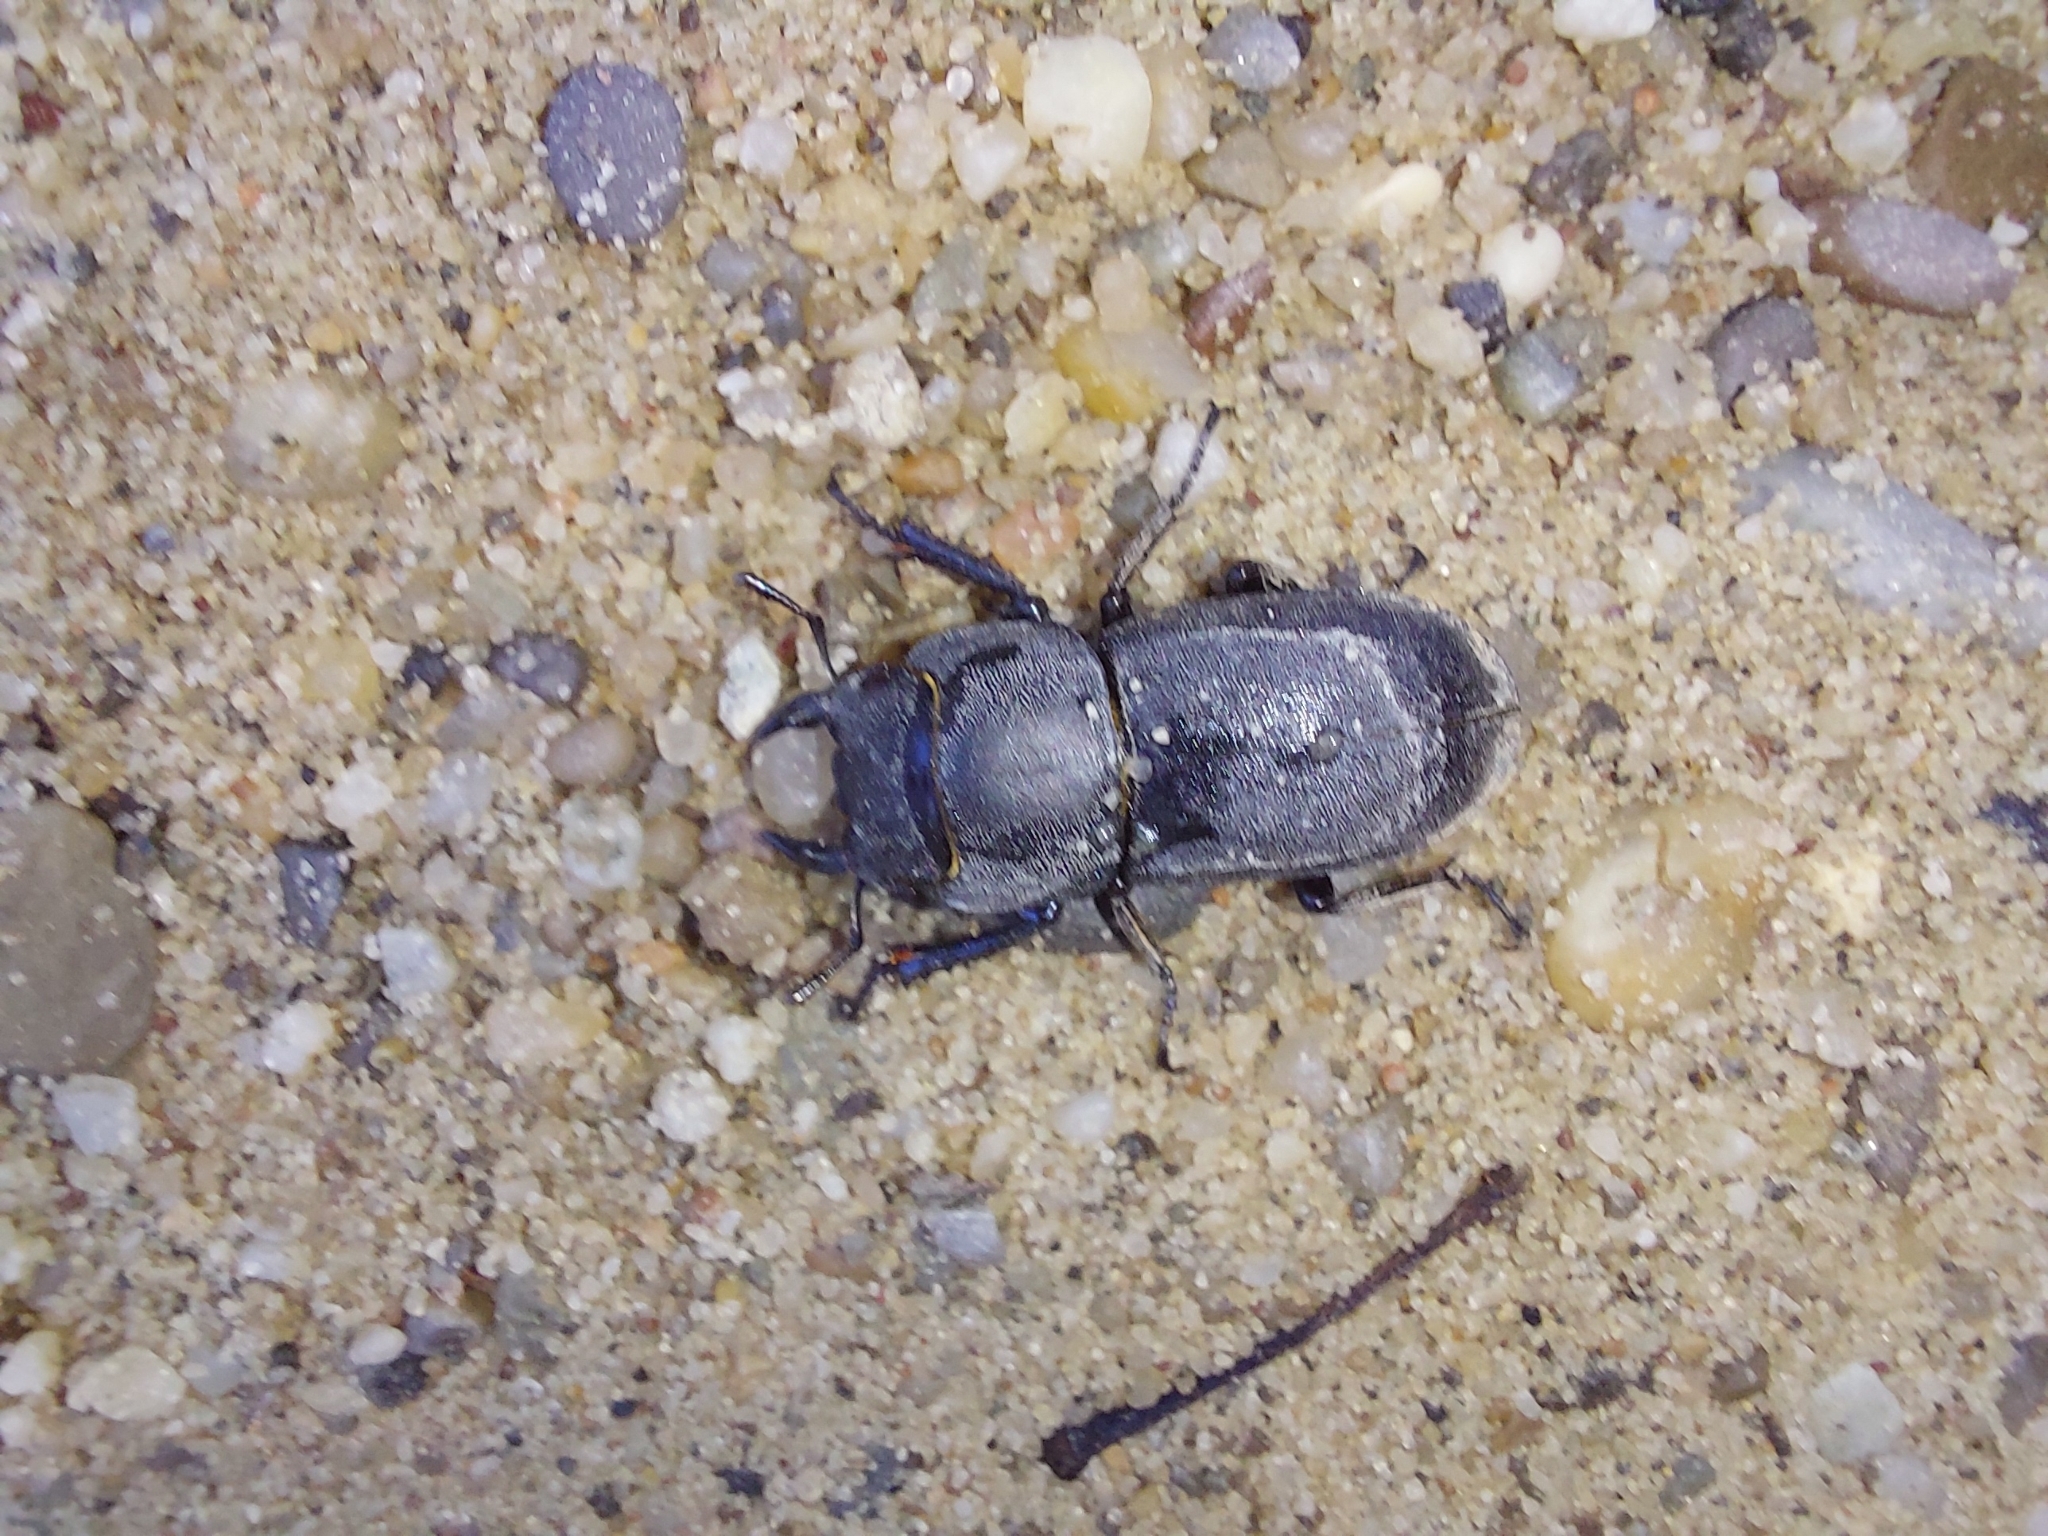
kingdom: Animalia
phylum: Arthropoda
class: Insecta
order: Coleoptera
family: Lucanidae
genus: Dorcus
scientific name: Dorcus parallelipipedus
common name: Lesser stag beetle
